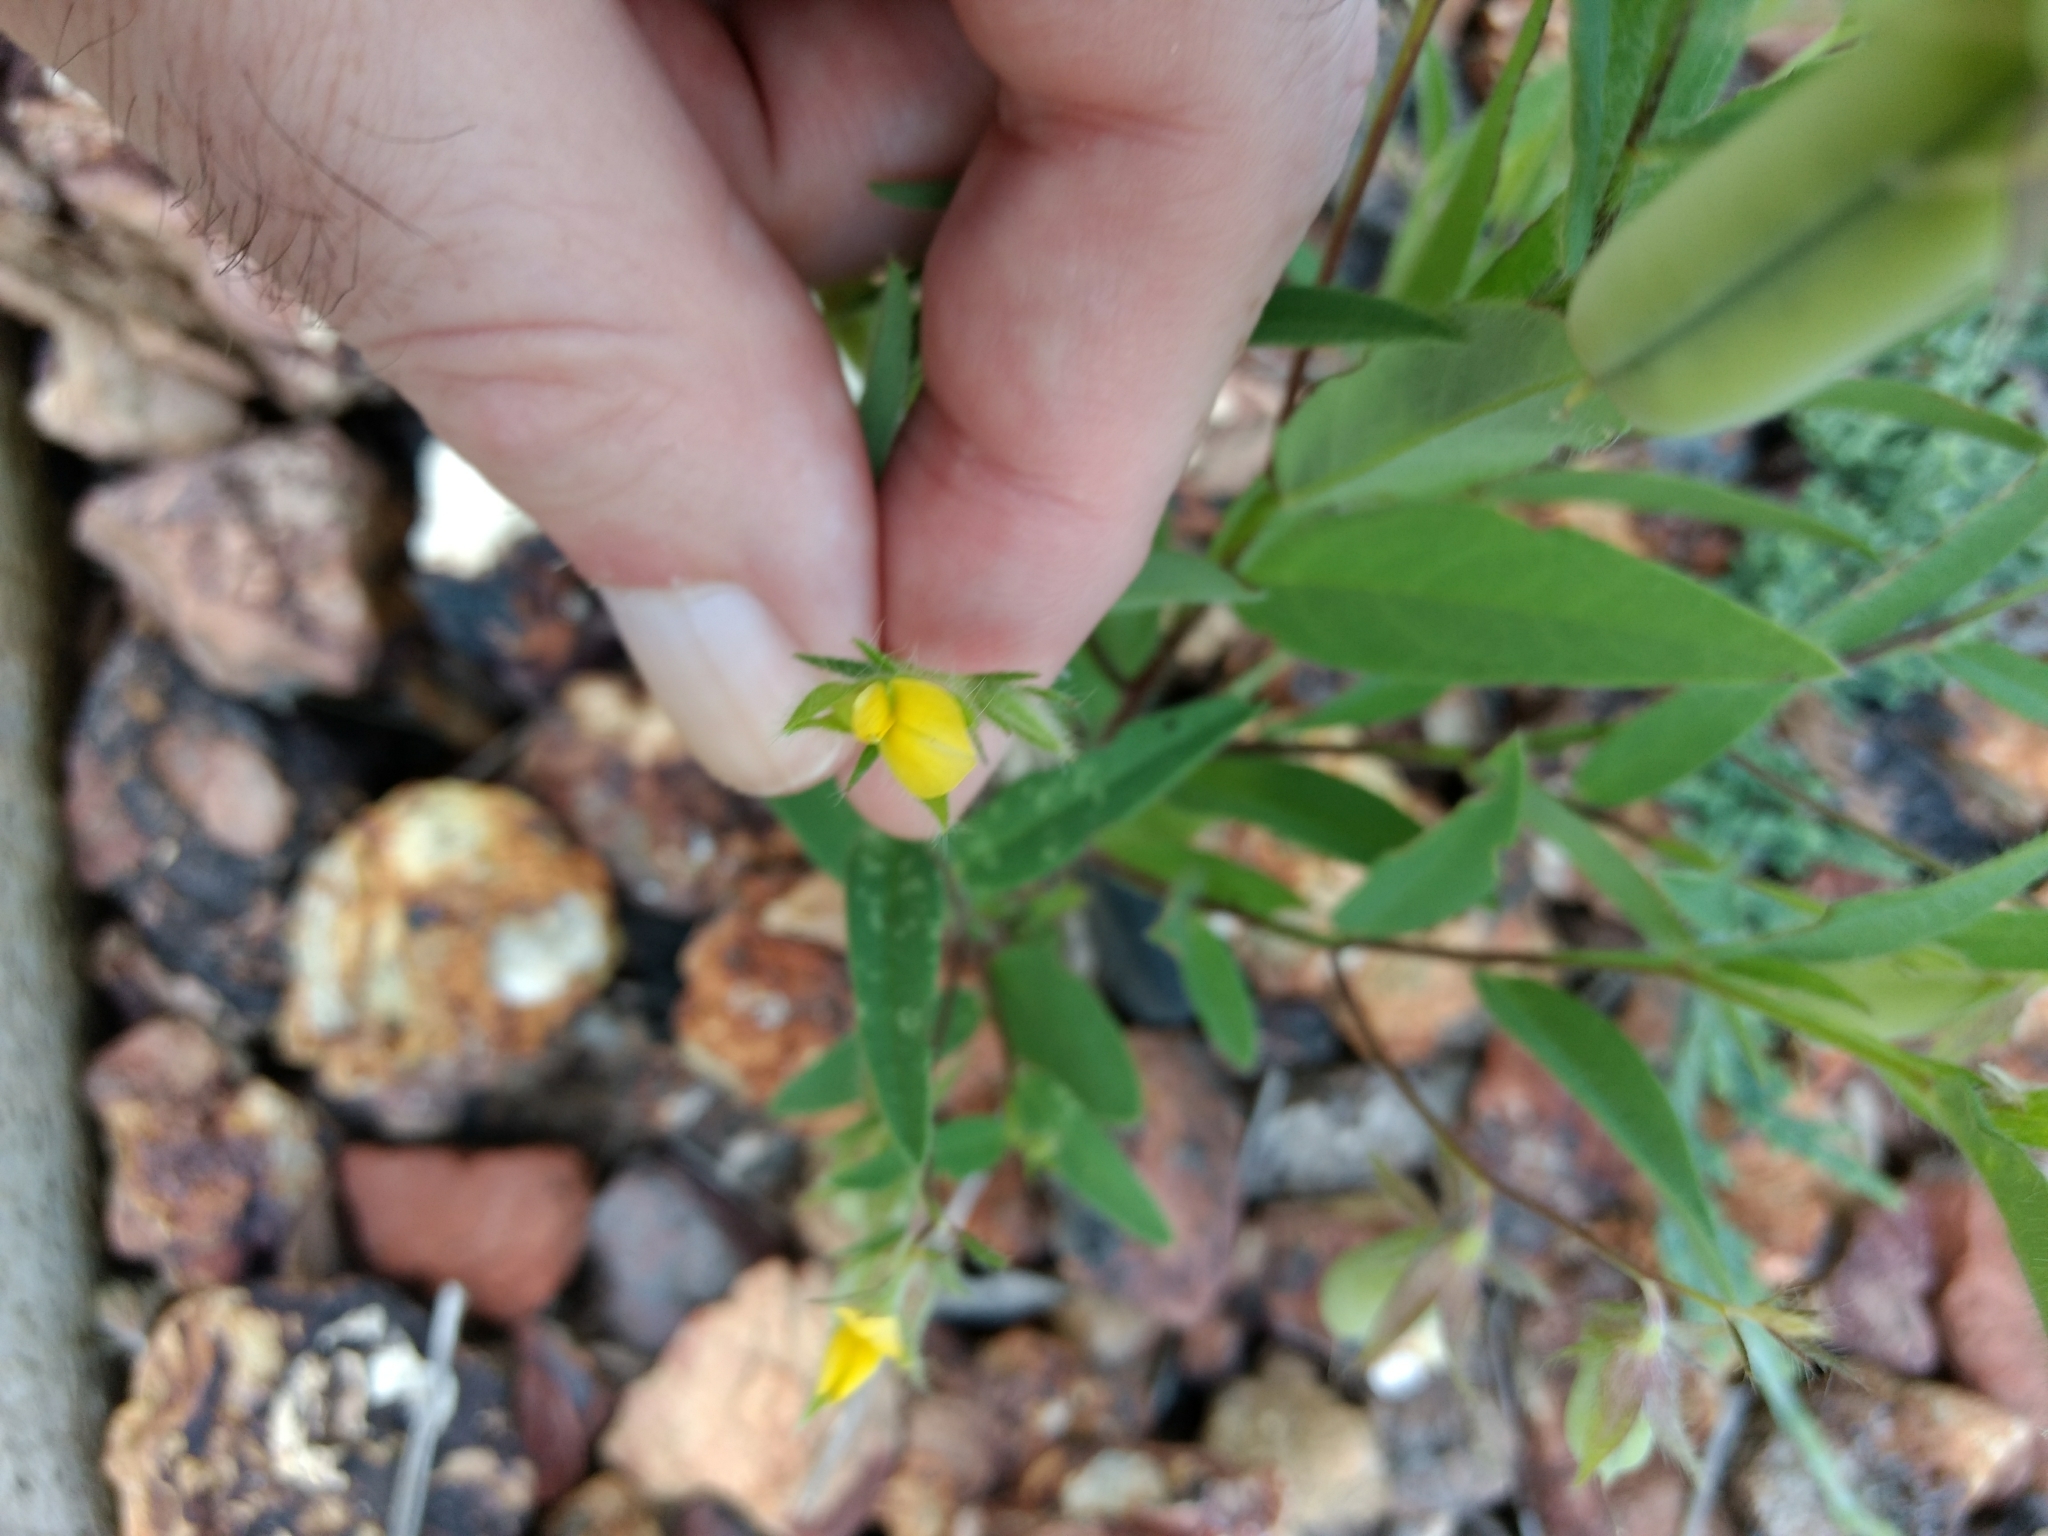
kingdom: Plantae
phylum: Tracheophyta
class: Magnoliopsida
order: Fabales
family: Fabaceae
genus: Crotalaria
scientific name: Crotalaria sagittalis
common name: Arrowhead rattlebox
